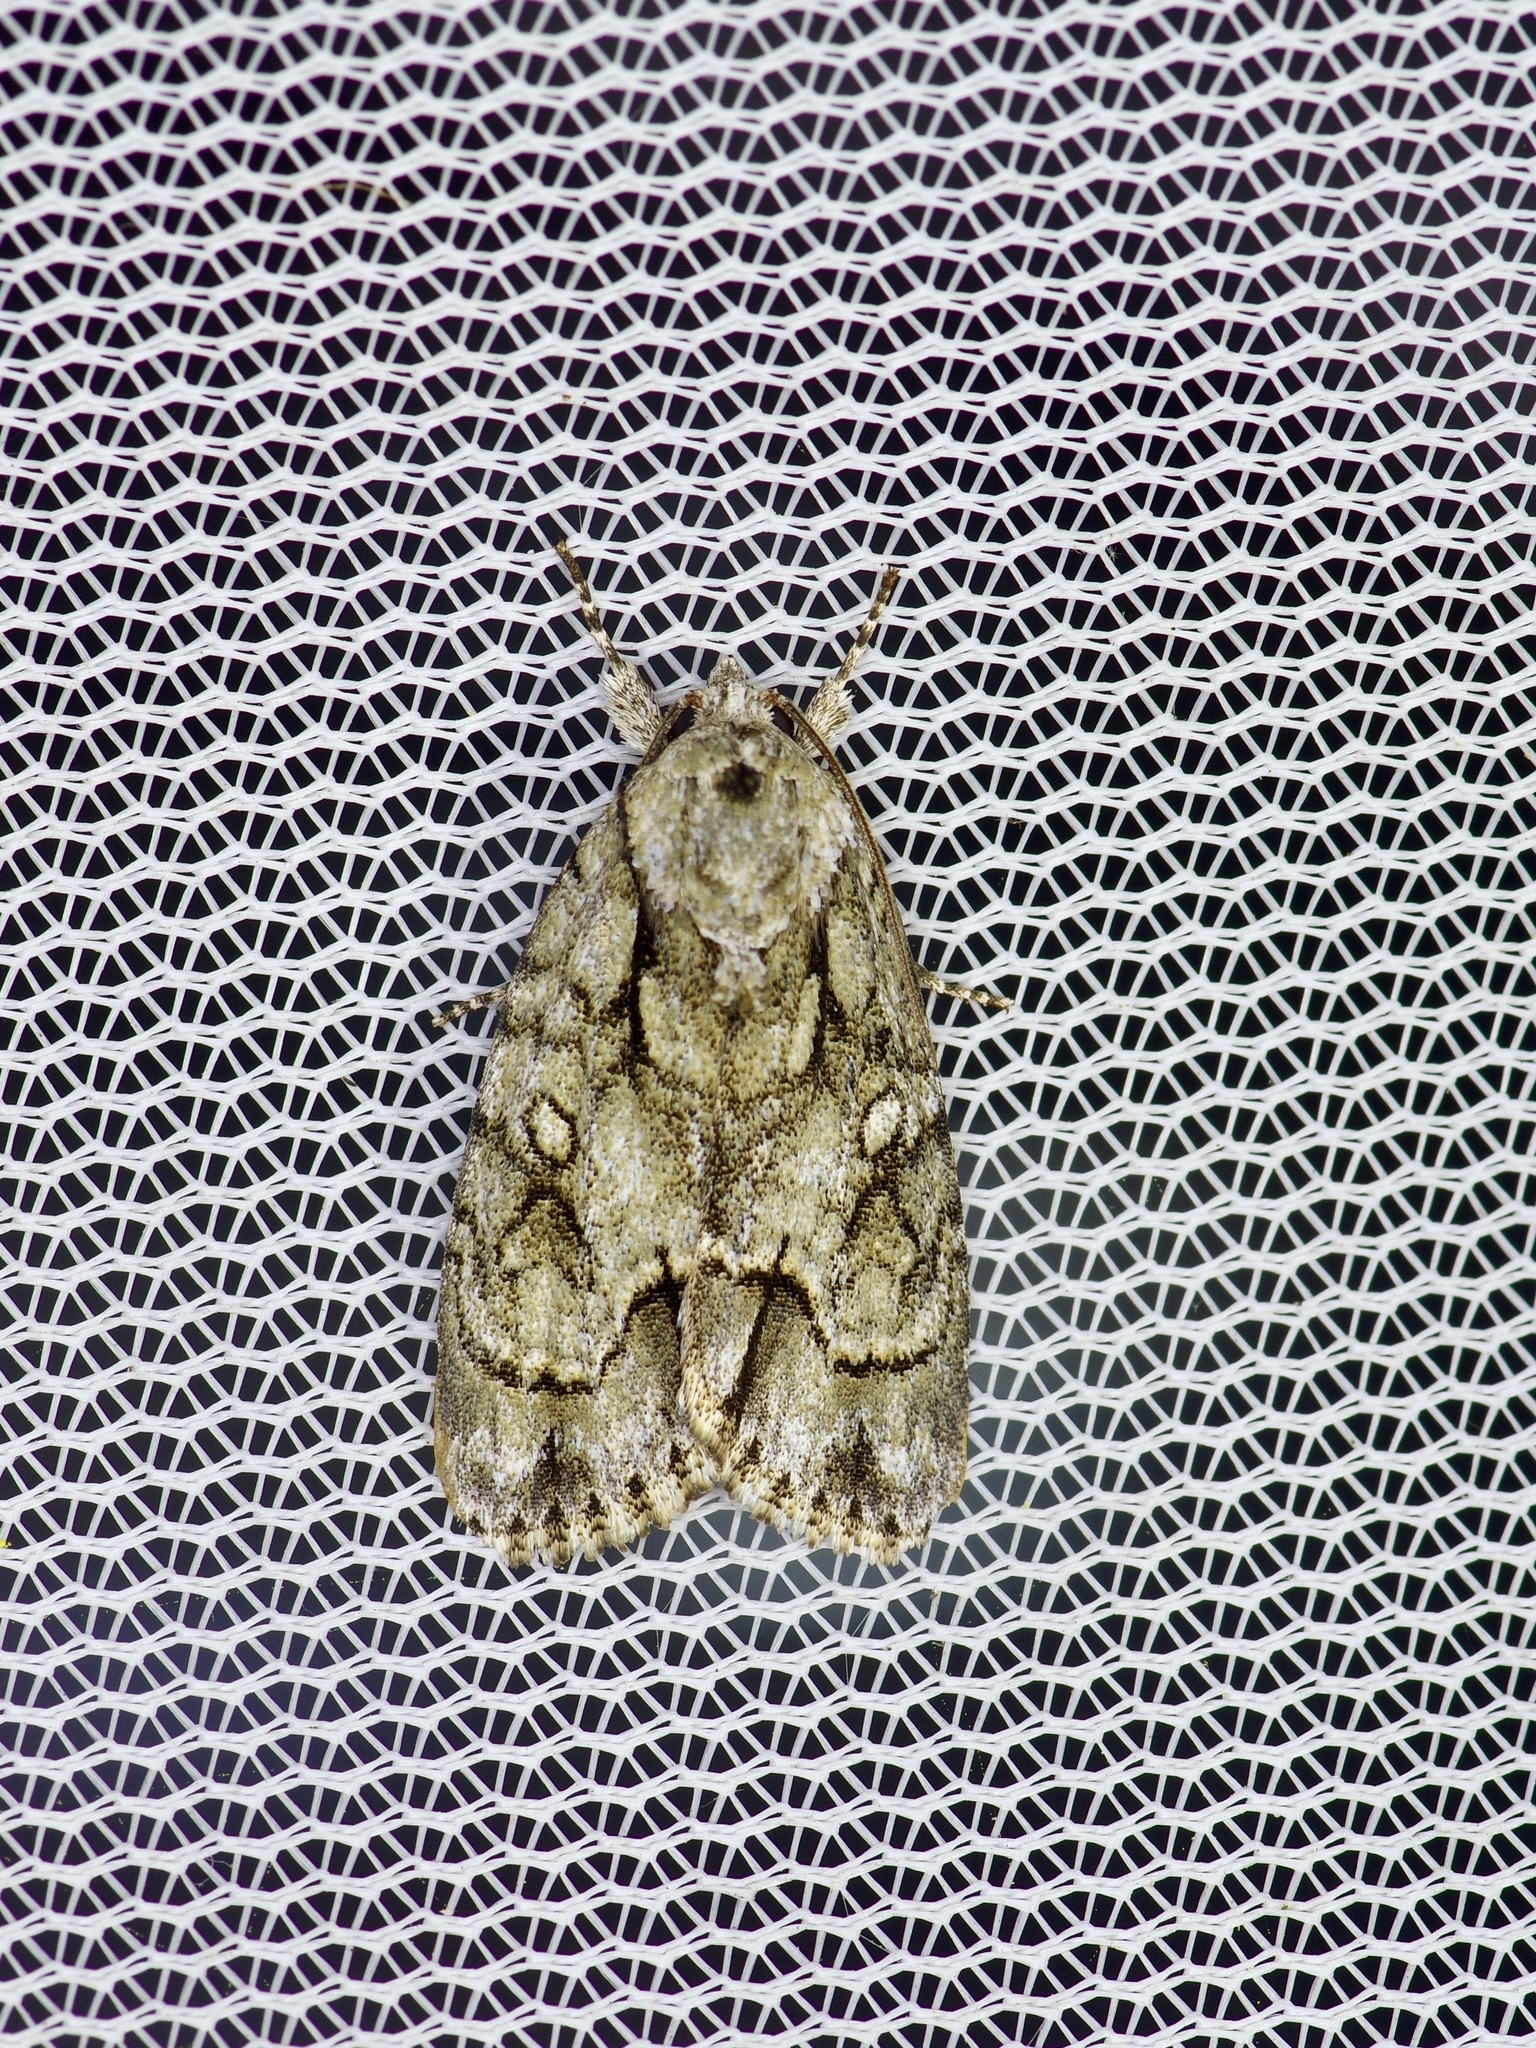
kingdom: Animalia
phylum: Arthropoda
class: Insecta
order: Lepidoptera
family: Noctuidae
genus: Acronicta
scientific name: Acronicta vinnula
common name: Delightful dagger
